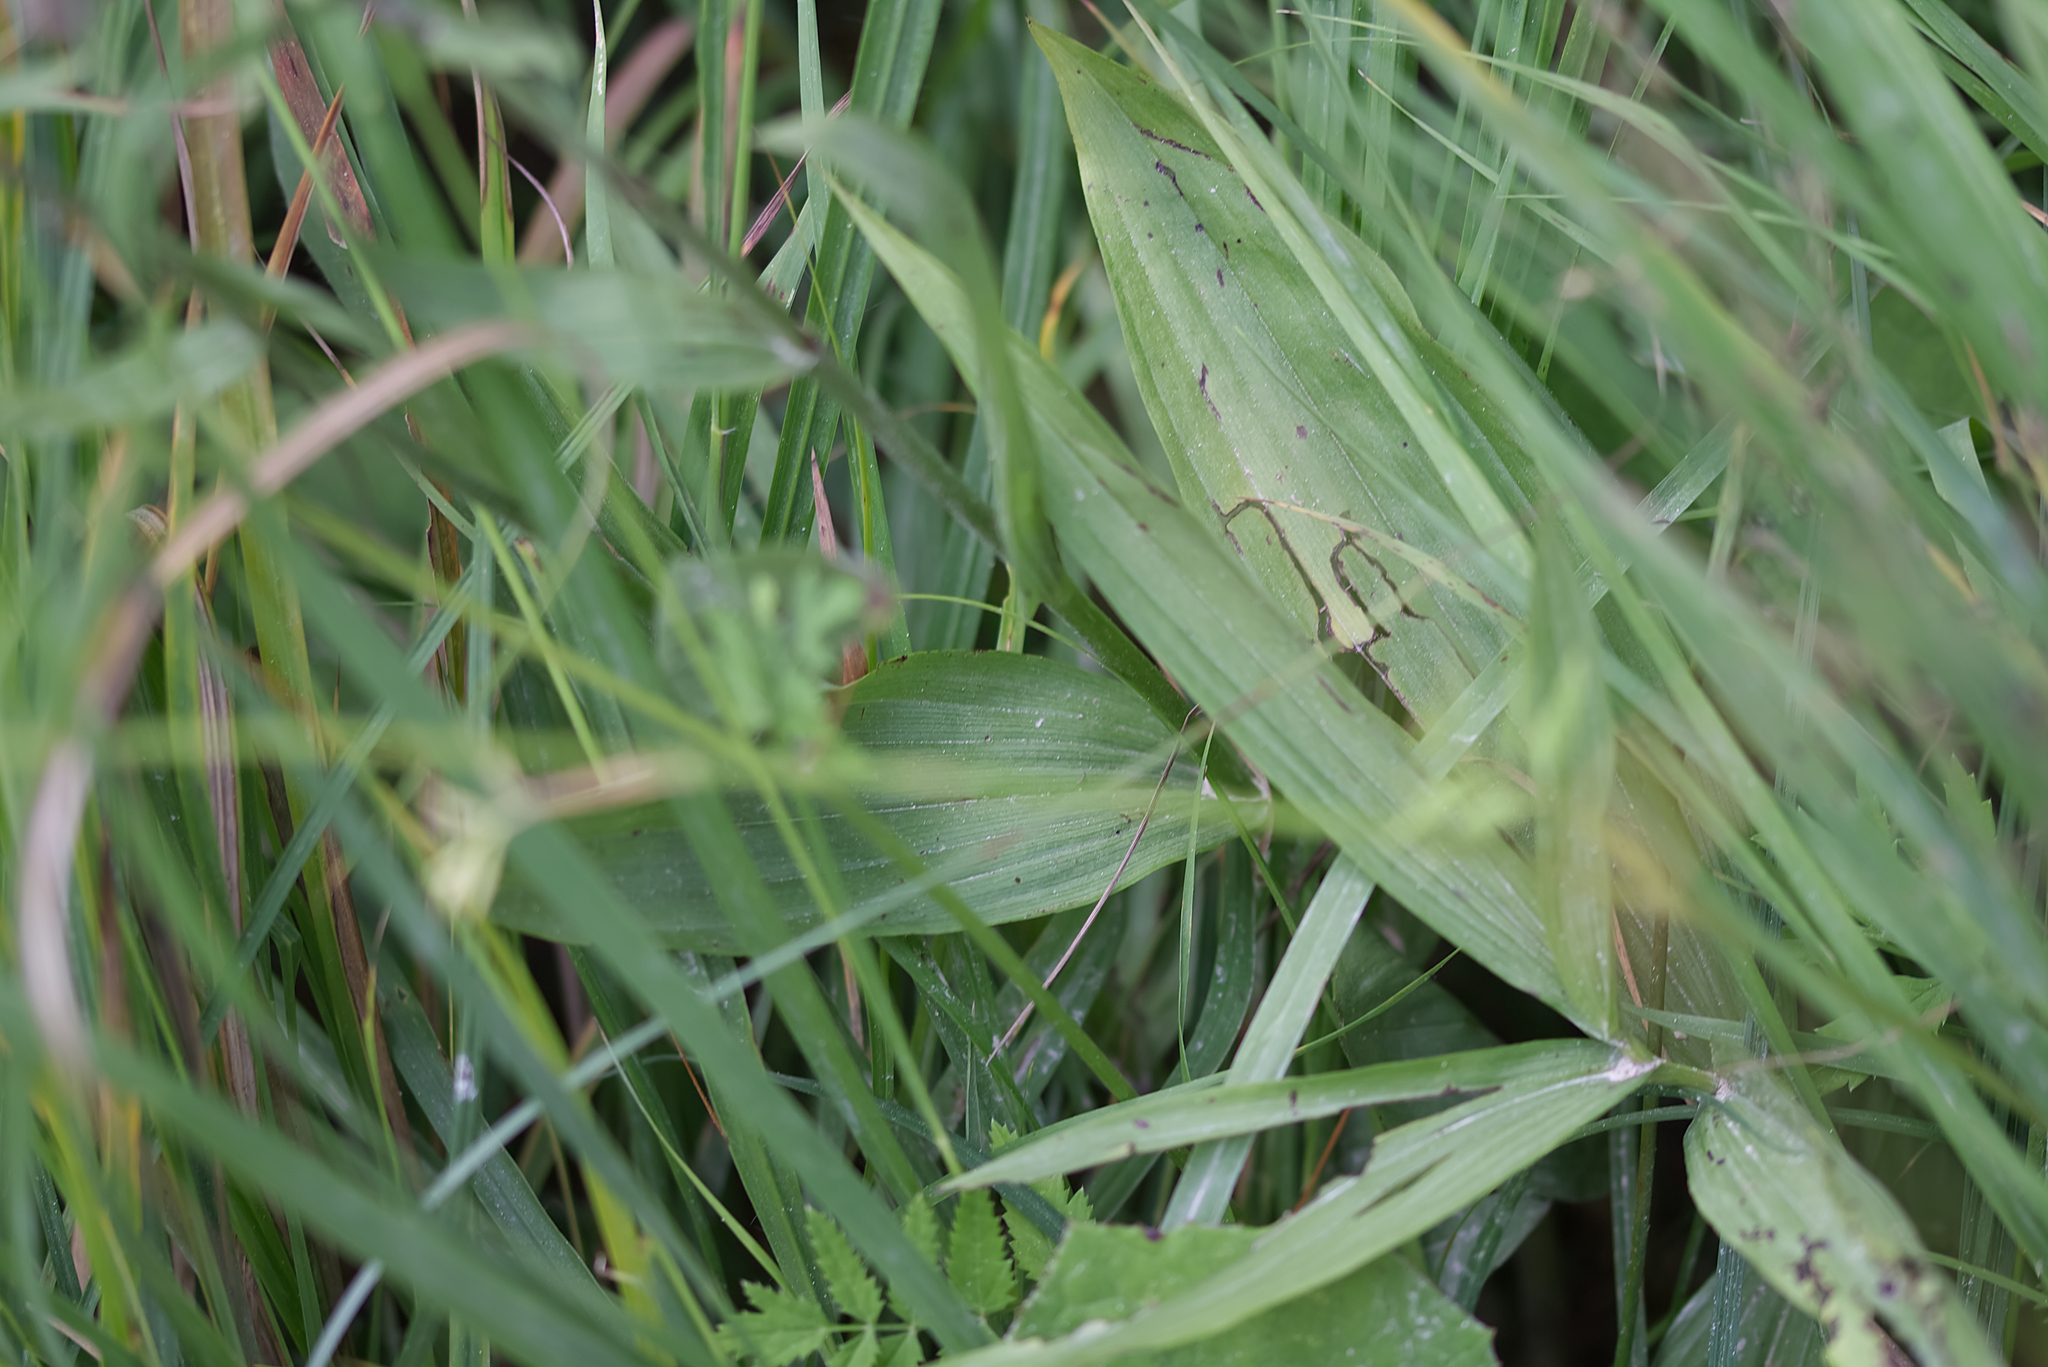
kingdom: Plantae
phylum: Tracheophyta
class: Liliopsida
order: Asparagales
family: Orchidaceae
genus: Epipactis
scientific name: Epipactis palustris
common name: Marsh helleborine
